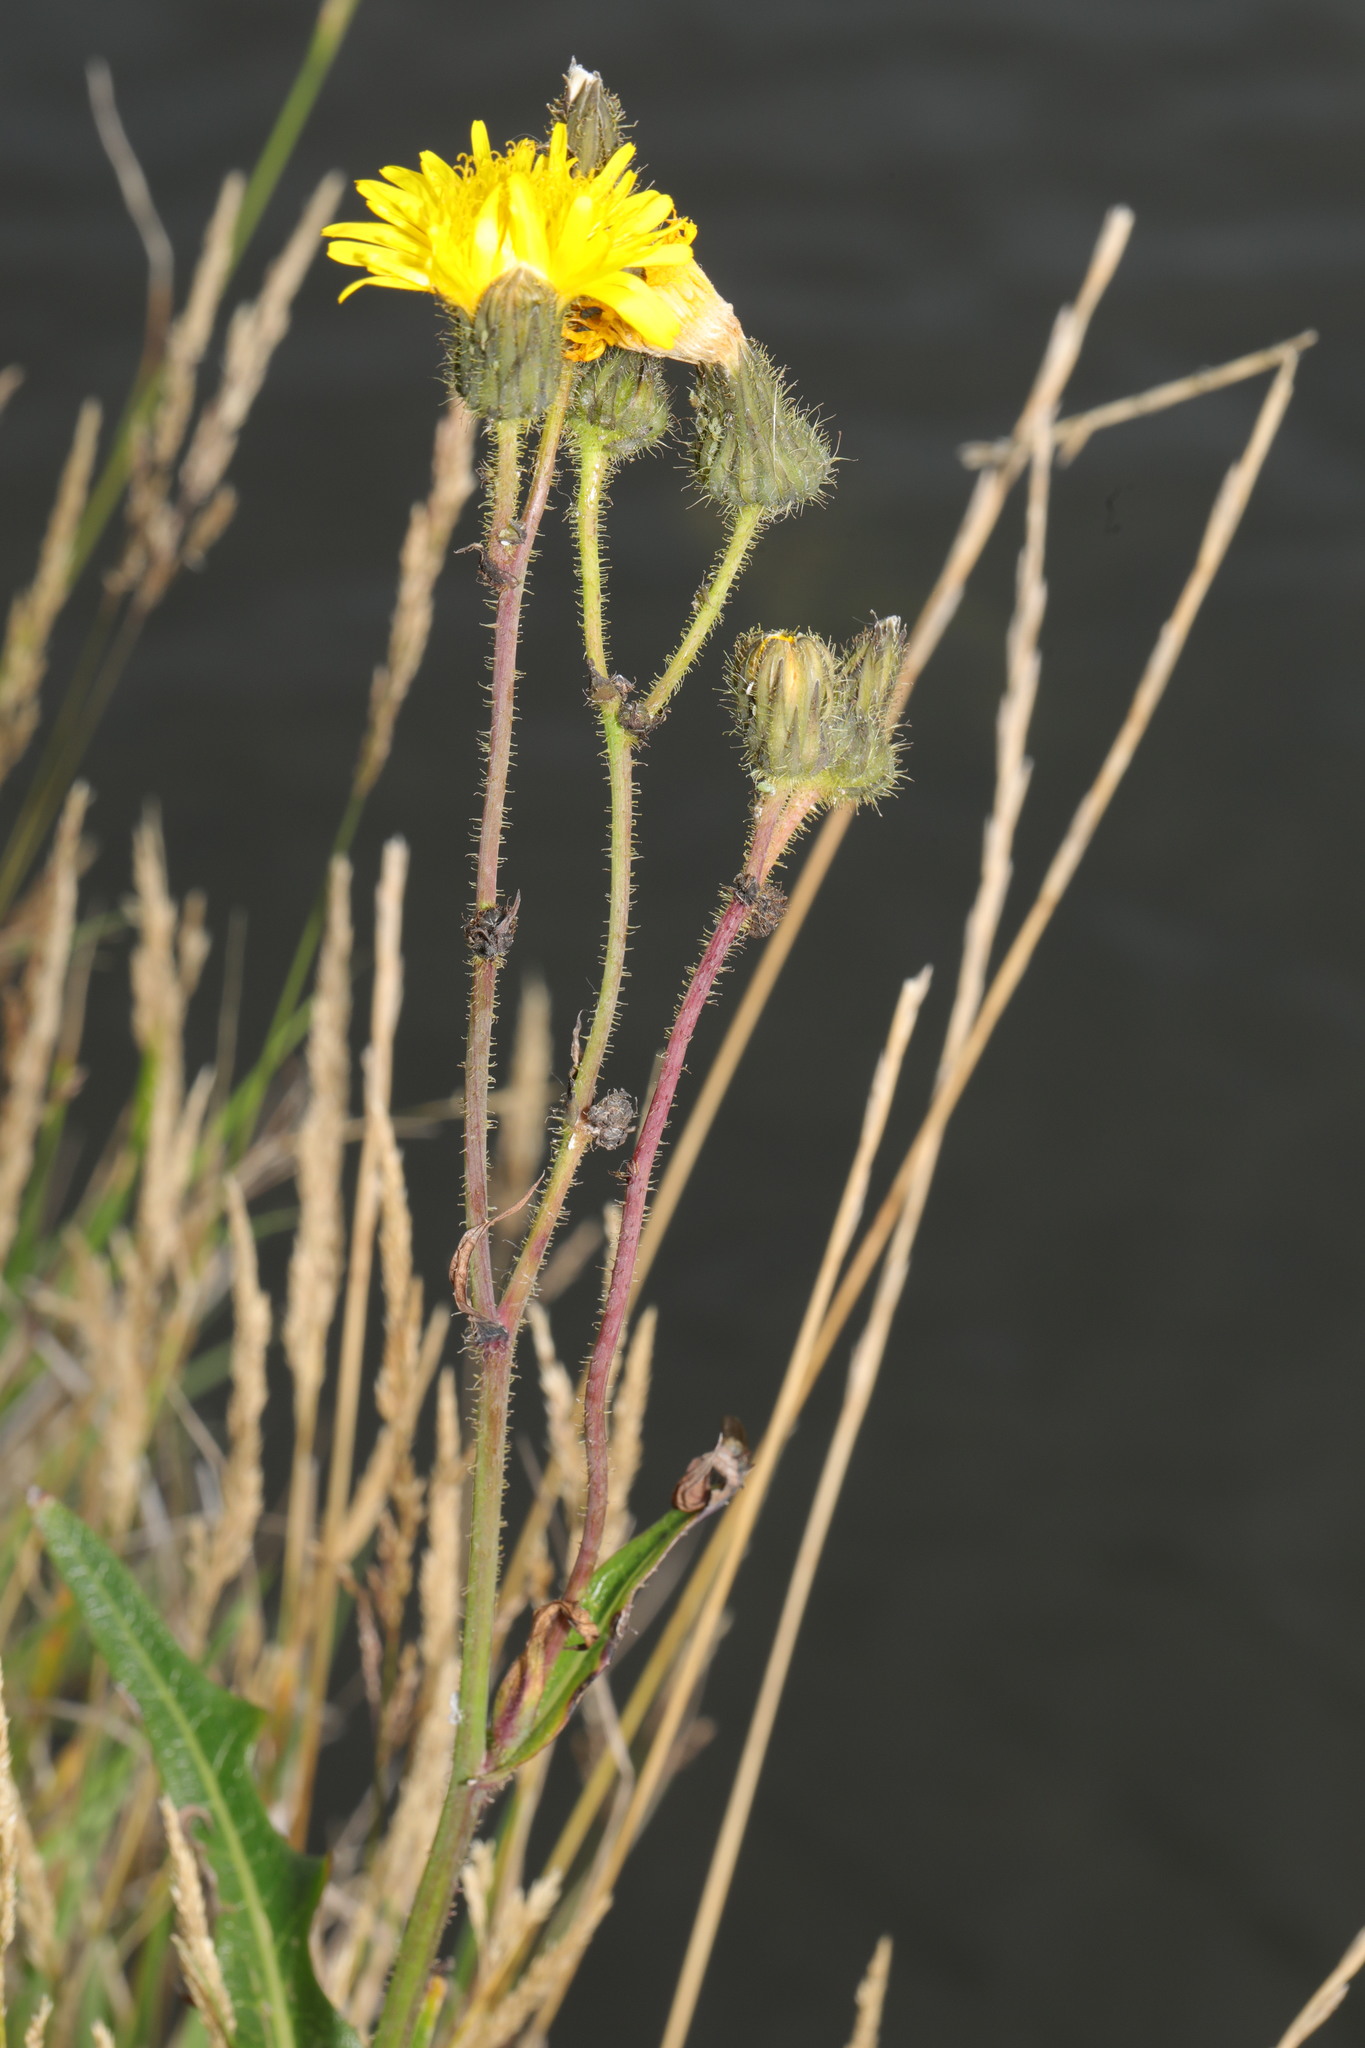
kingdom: Plantae
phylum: Tracheophyta
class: Magnoliopsida
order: Asterales
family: Asteraceae
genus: Sonchus
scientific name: Sonchus arvensis
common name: Perennial sow-thistle
